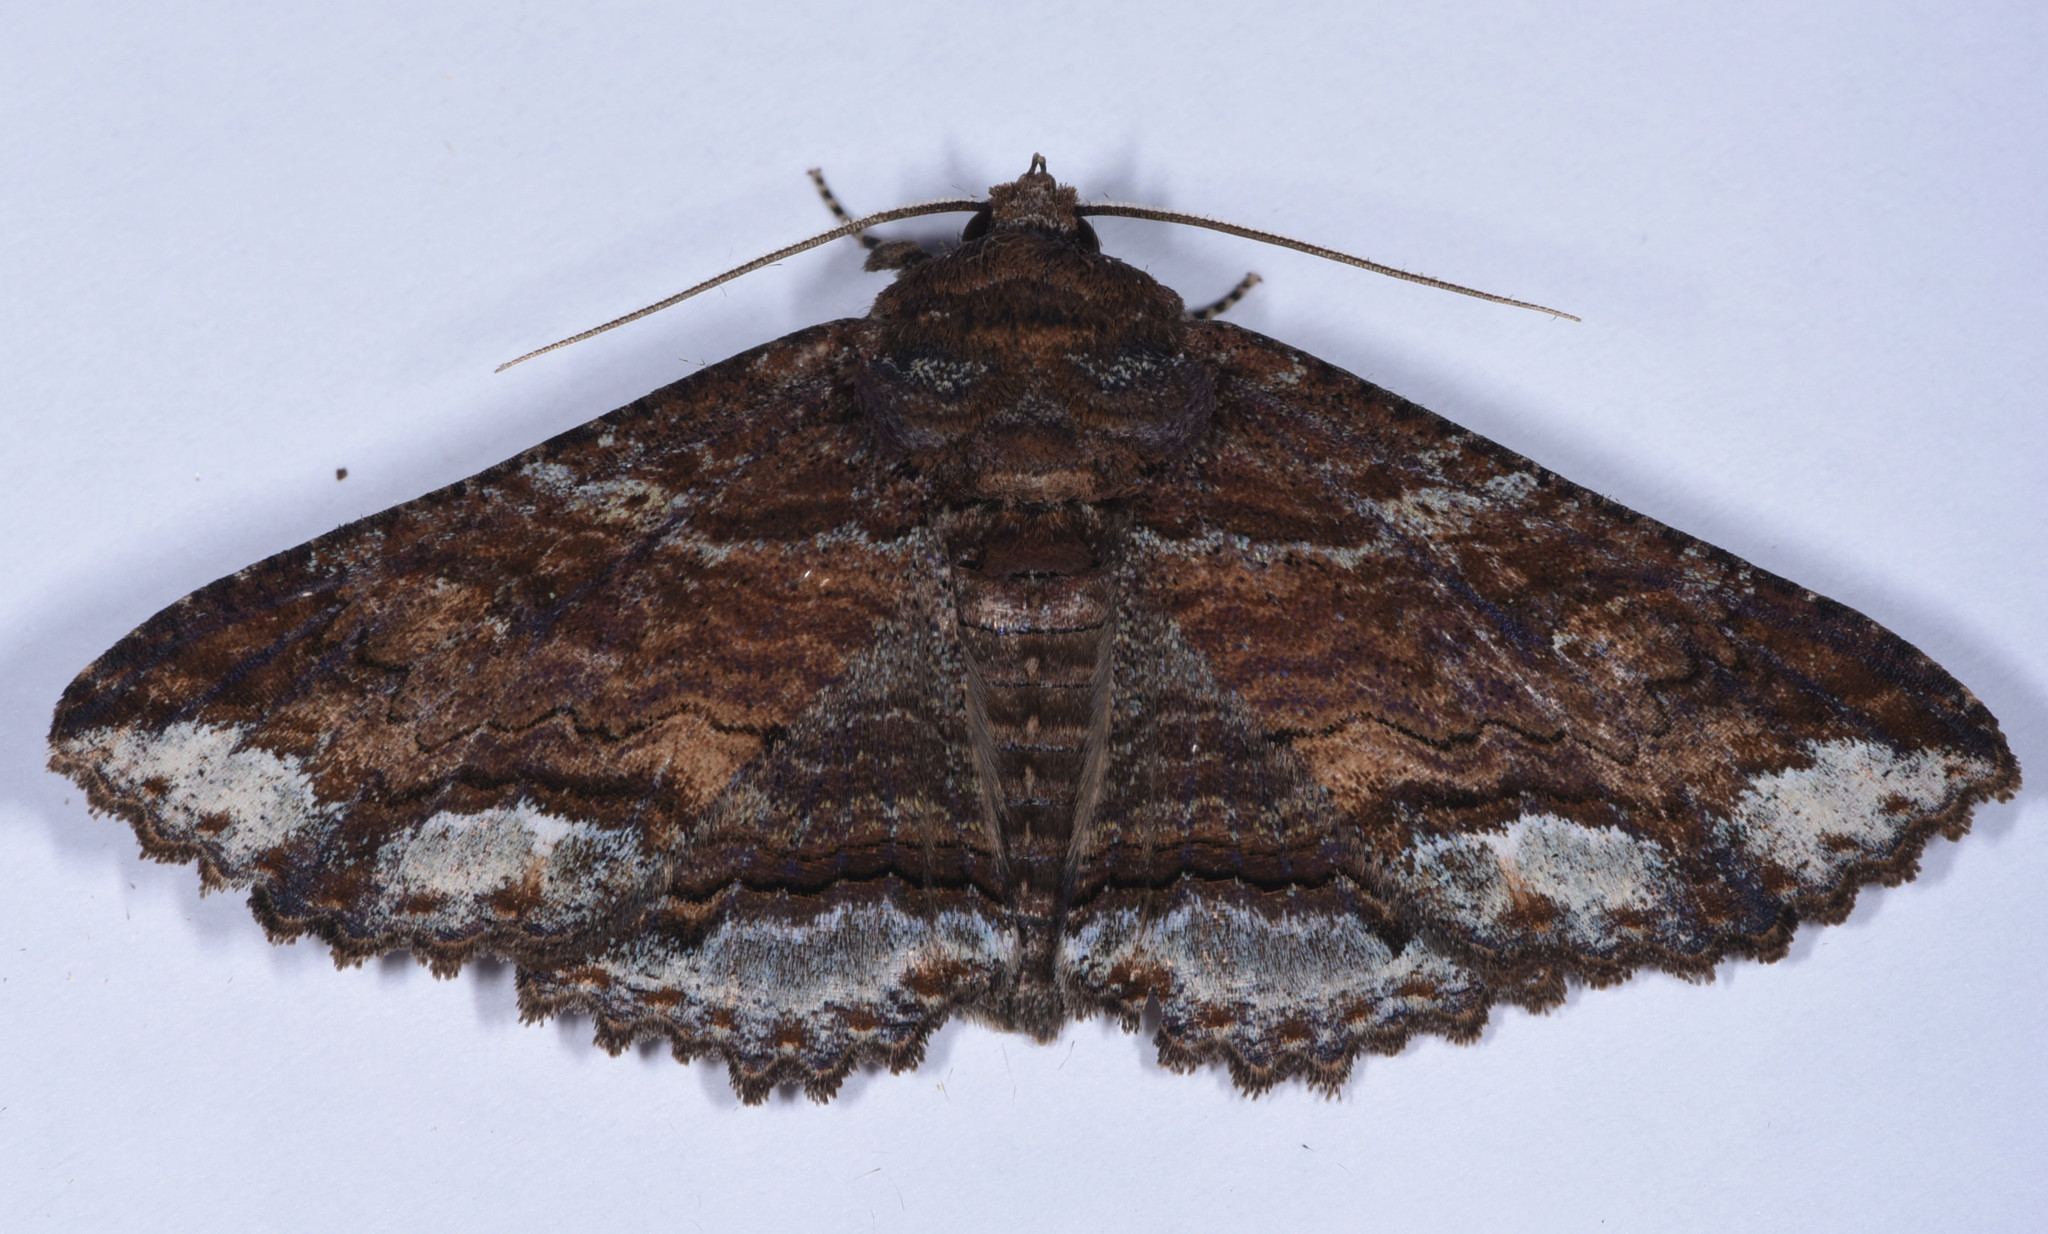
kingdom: Animalia
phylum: Arthropoda
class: Insecta
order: Lepidoptera
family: Erebidae
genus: Zale
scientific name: Zale lunata
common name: Lunate zale moth
